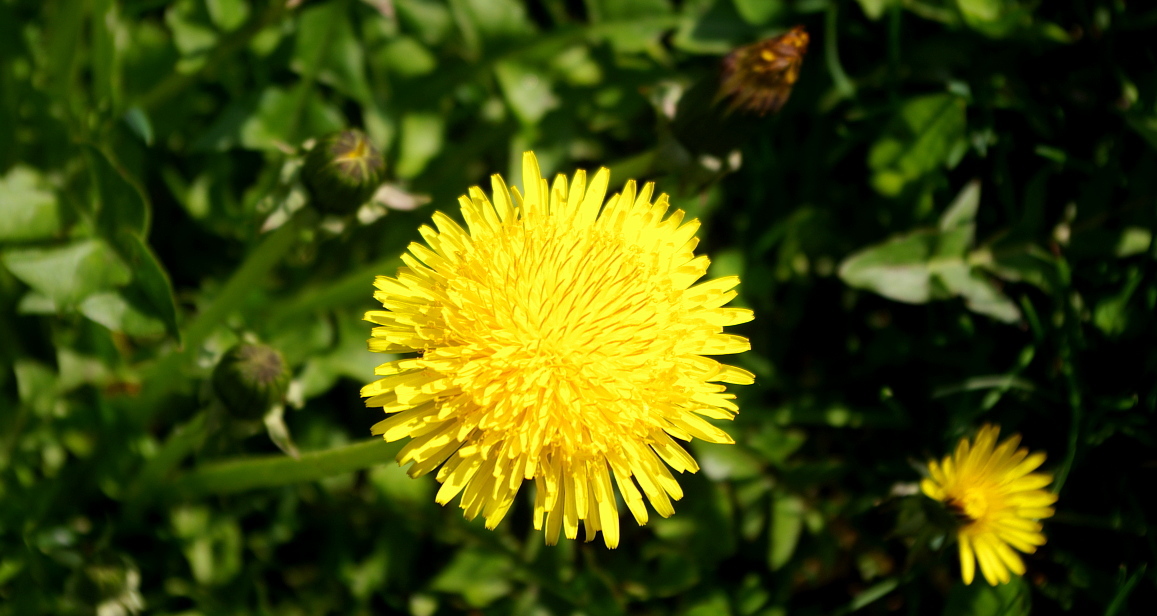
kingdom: Plantae
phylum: Tracheophyta
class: Magnoliopsida
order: Asterales
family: Asteraceae
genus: Taraxacum
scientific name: Taraxacum officinale
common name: Common dandelion
